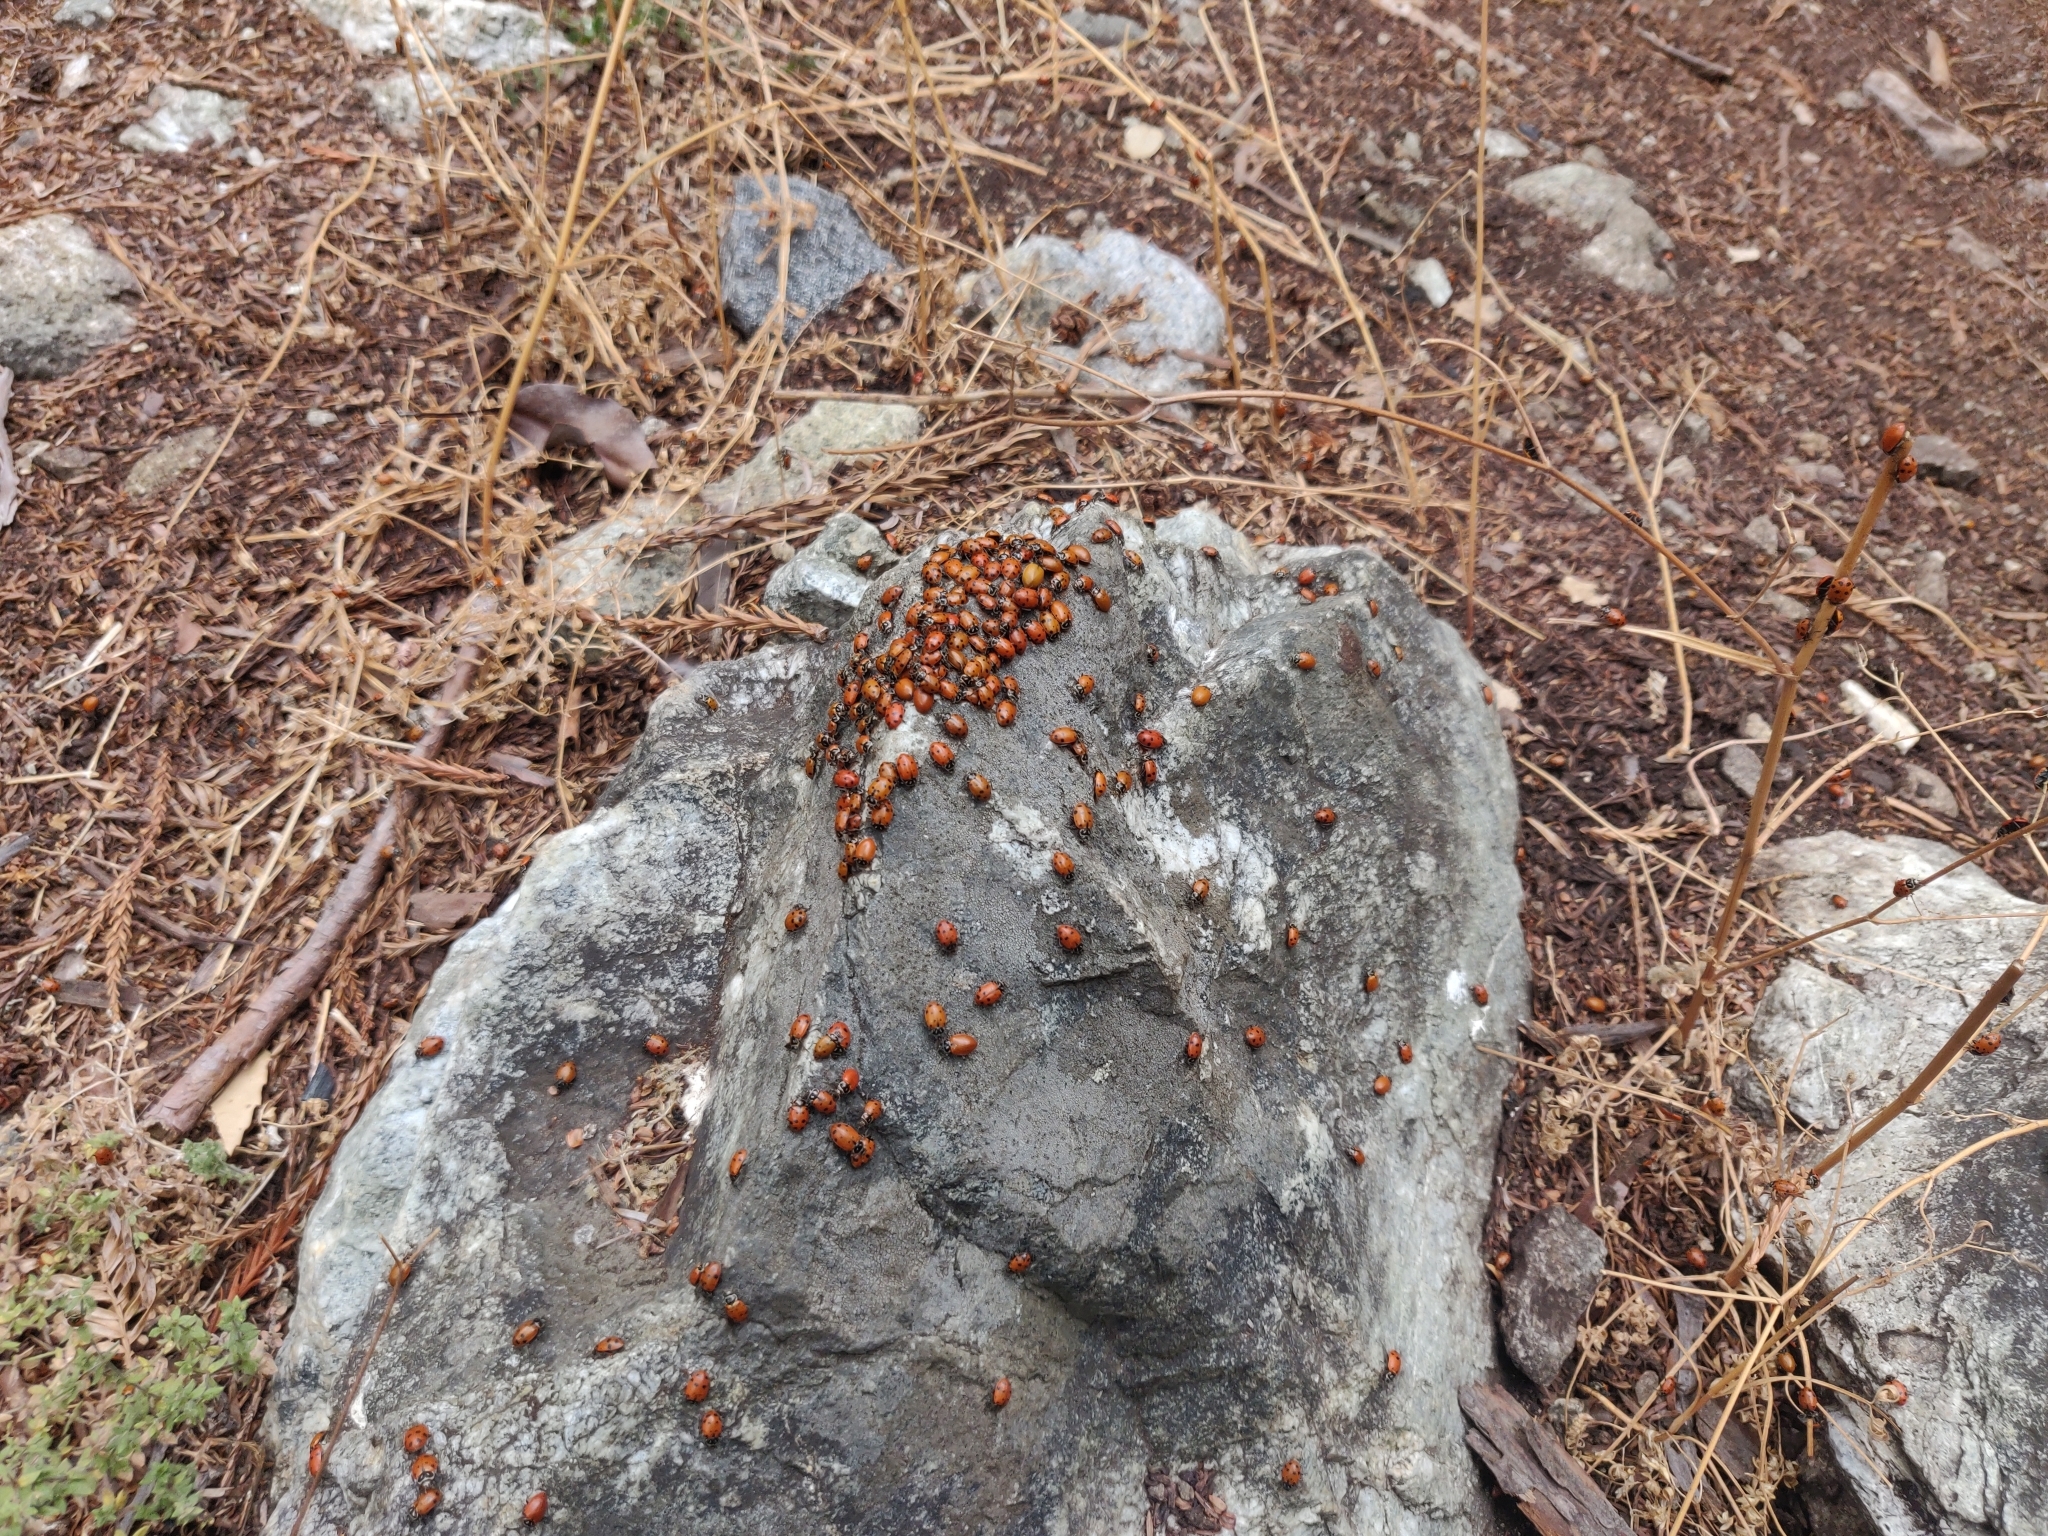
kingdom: Animalia
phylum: Arthropoda
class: Insecta
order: Coleoptera
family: Coccinellidae
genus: Hippodamia
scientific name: Hippodamia convergens
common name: Convergent lady beetle
